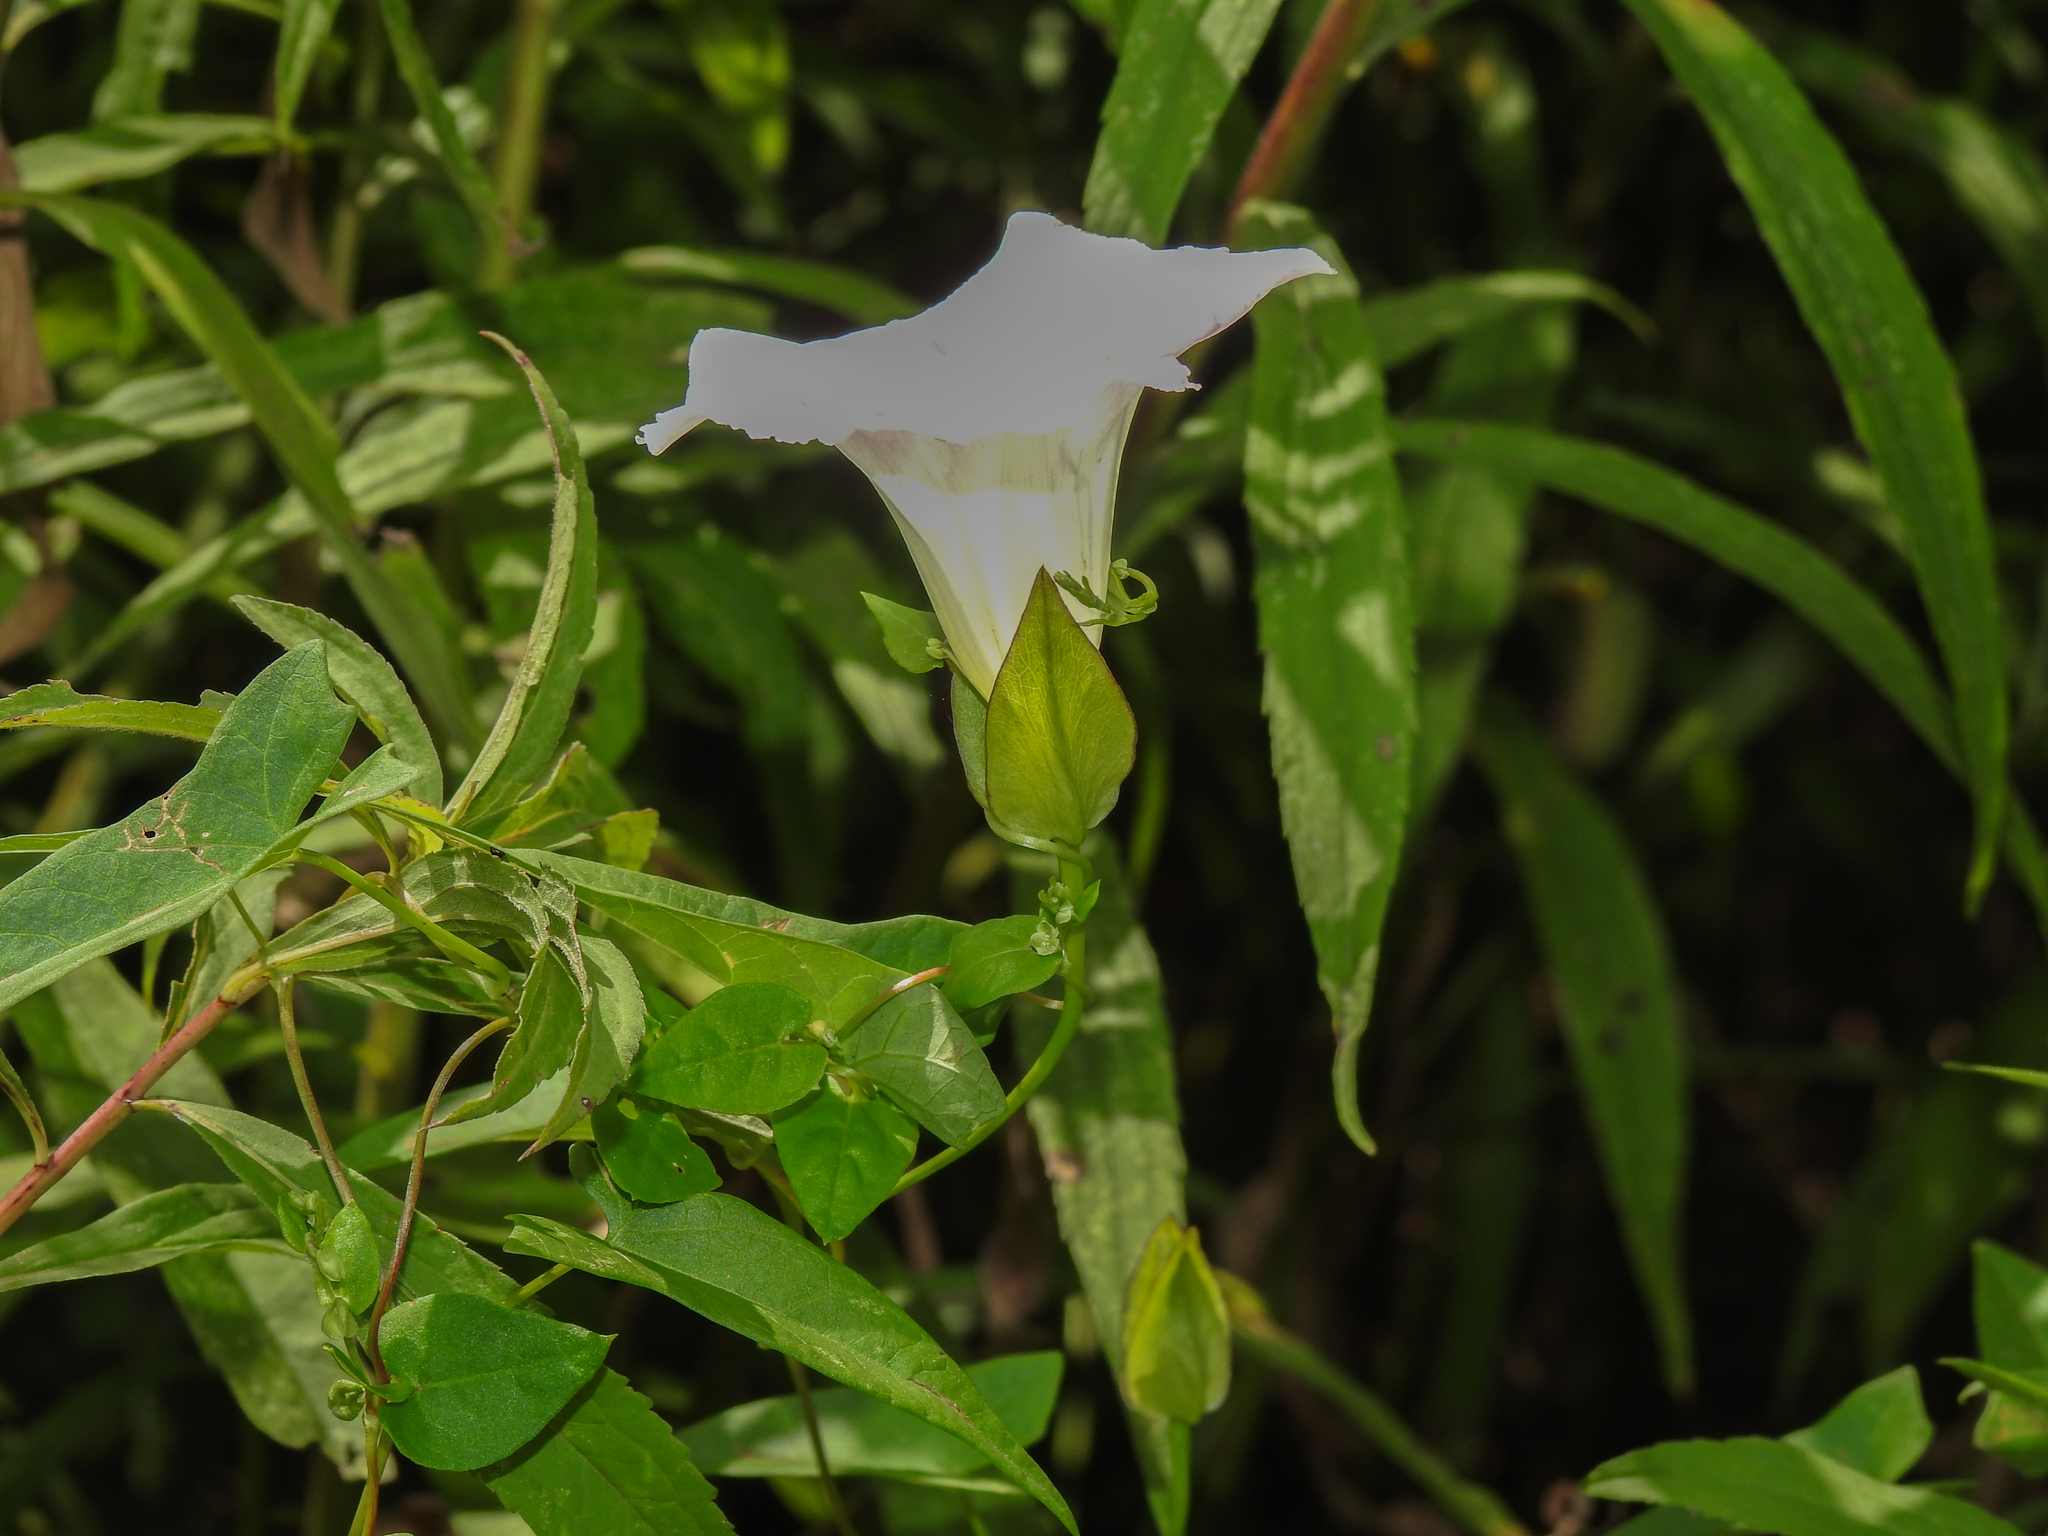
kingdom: Plantae
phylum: Tracheophyta
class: Magnoliopsida
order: Solanales
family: Convolvulaceae
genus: Calystegia
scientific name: Calystegia sepium
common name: Hedge bindweed
